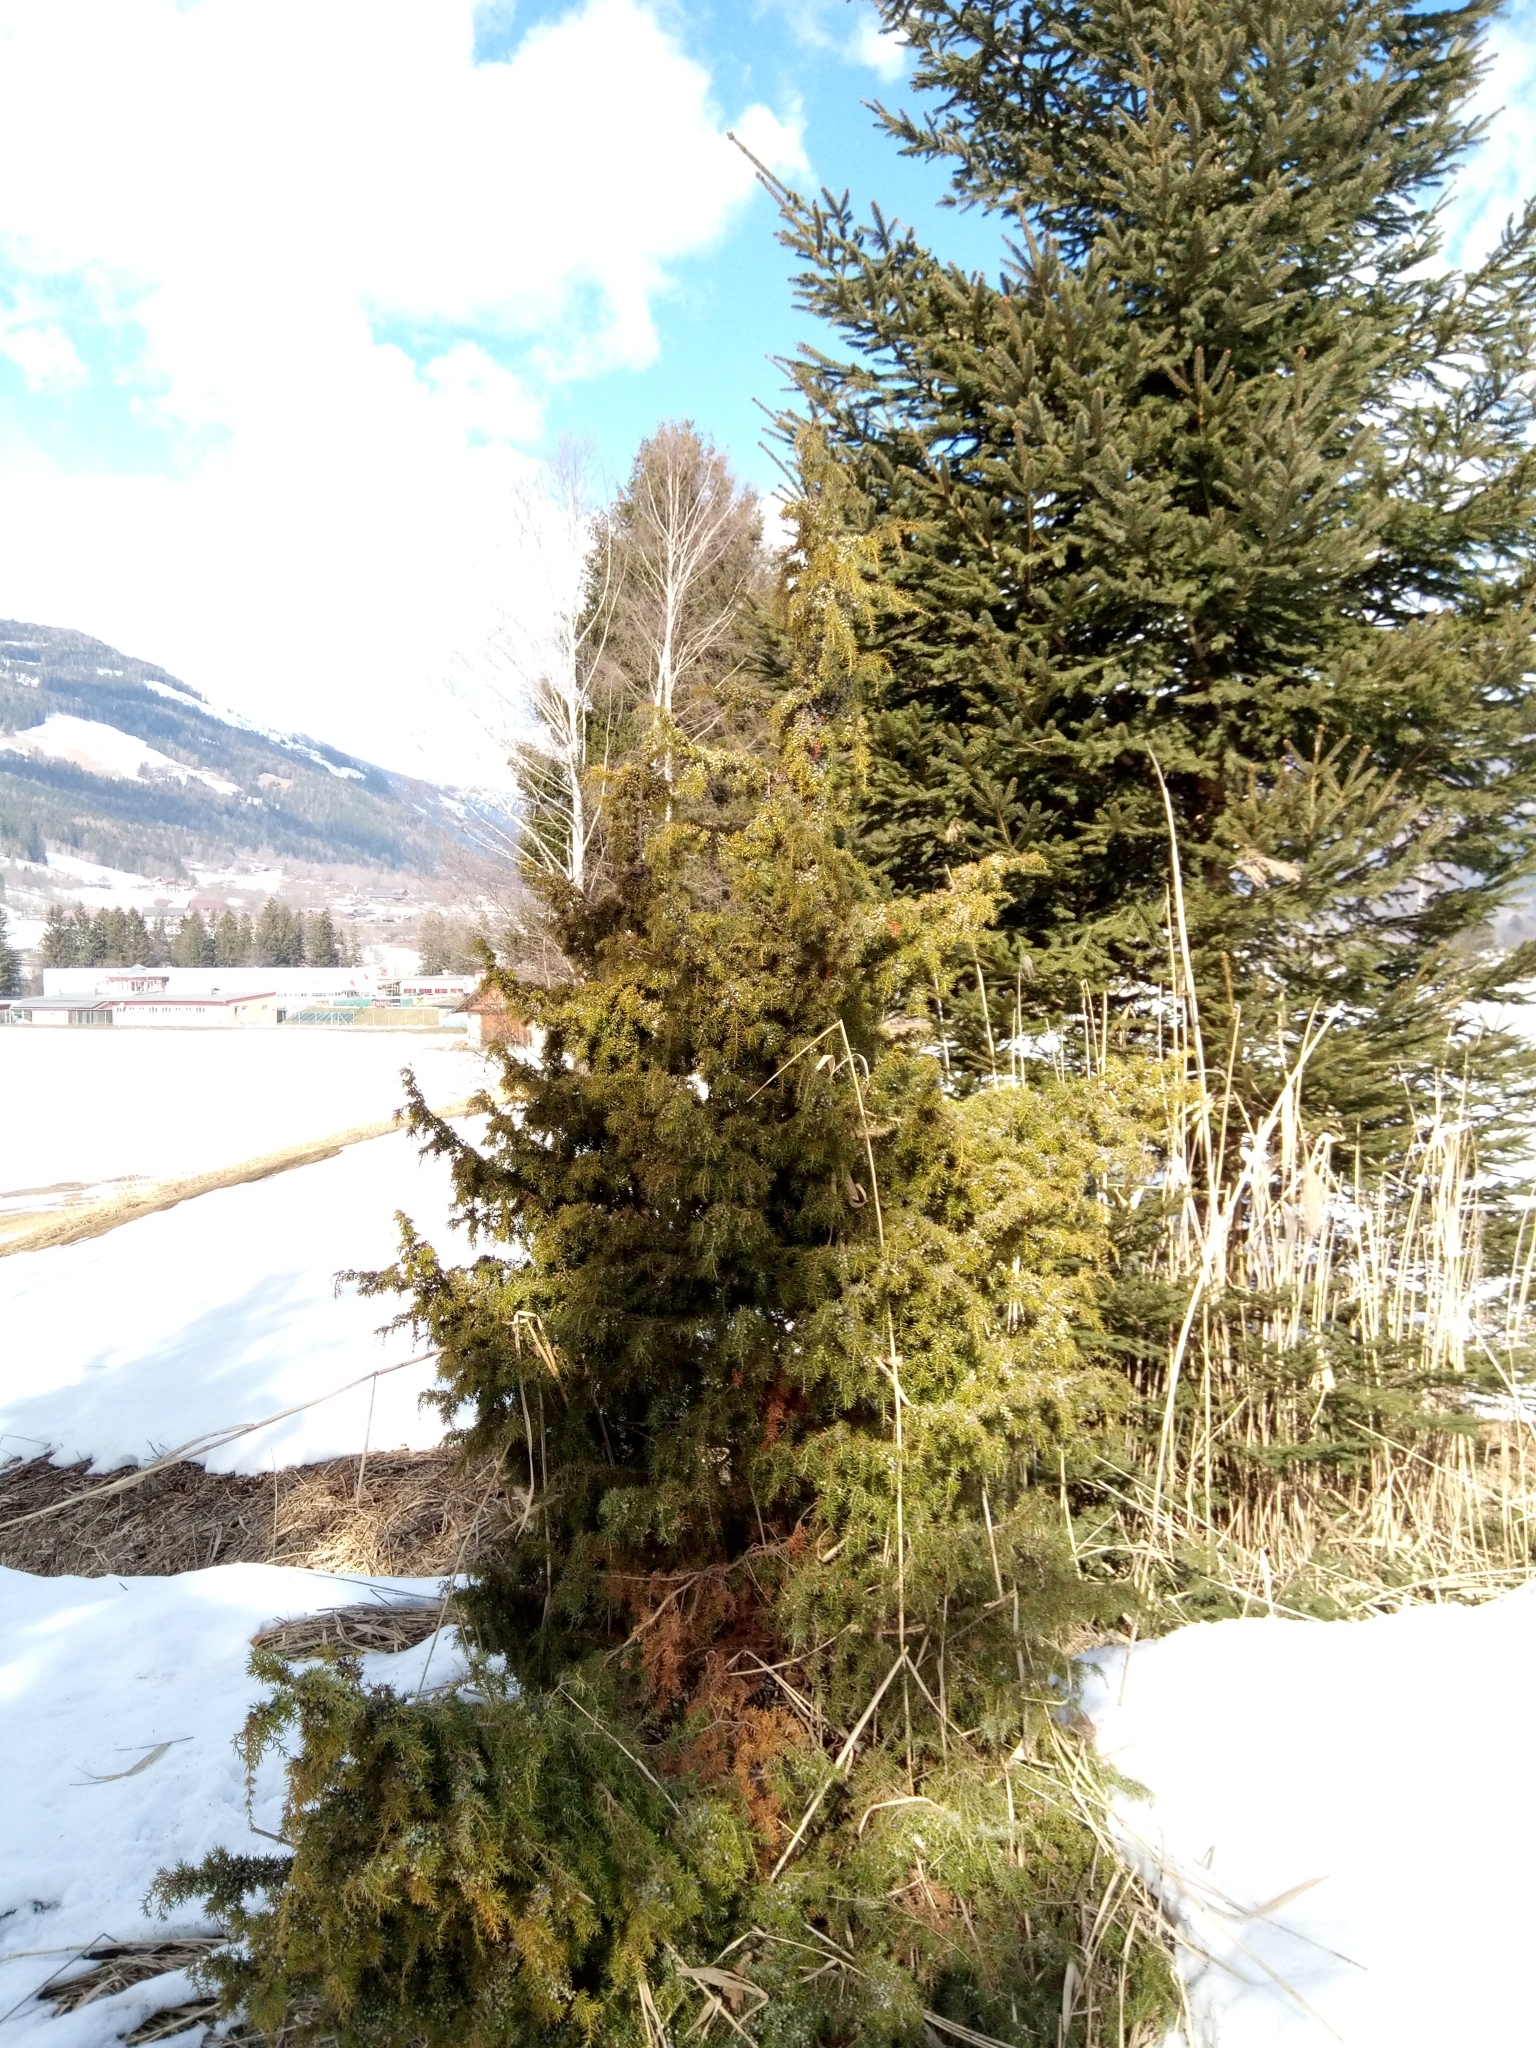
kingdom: Plantae
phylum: Tracheophyta
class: Pinopsida
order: Pinales
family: Cupressaceae
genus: Juniperus
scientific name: Juniperus communis
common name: Common juniper
